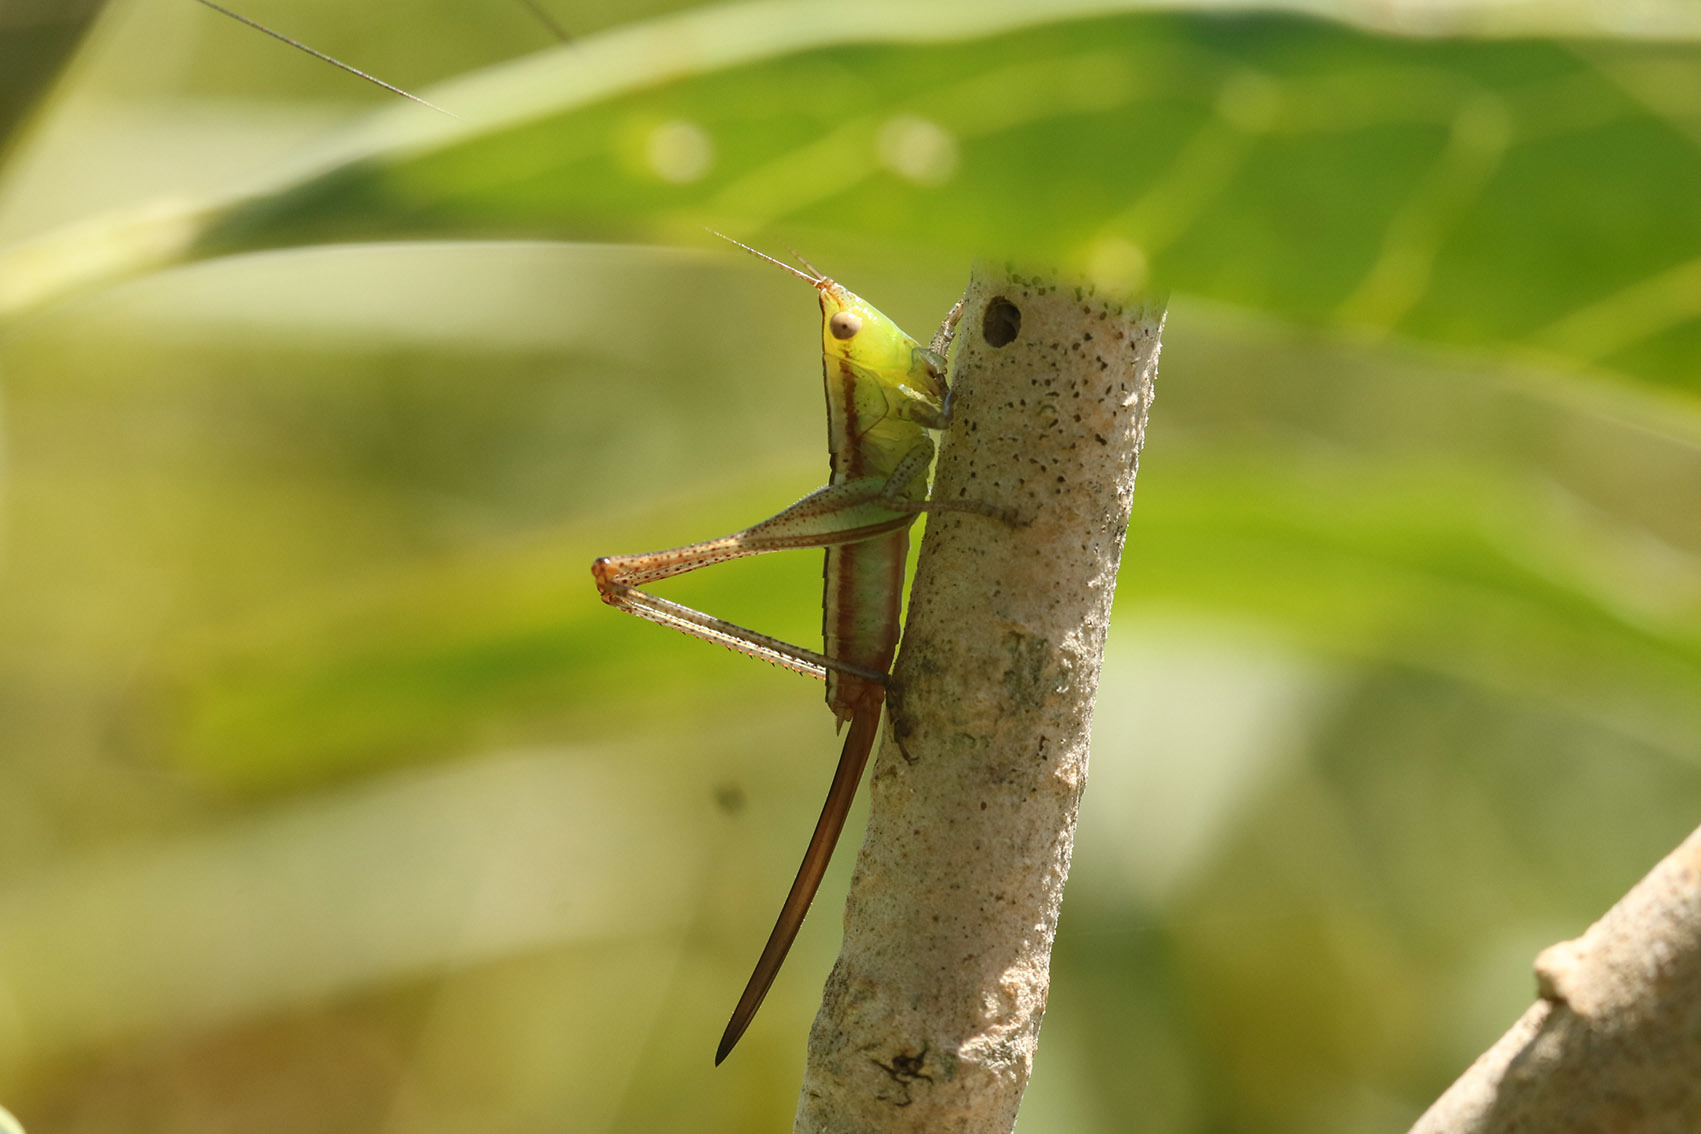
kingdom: Animalia
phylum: Arthropoda
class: Insecta
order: Orthoptera
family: Tettigoniidae
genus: Conocephalus
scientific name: Conocephalus doryphorus
